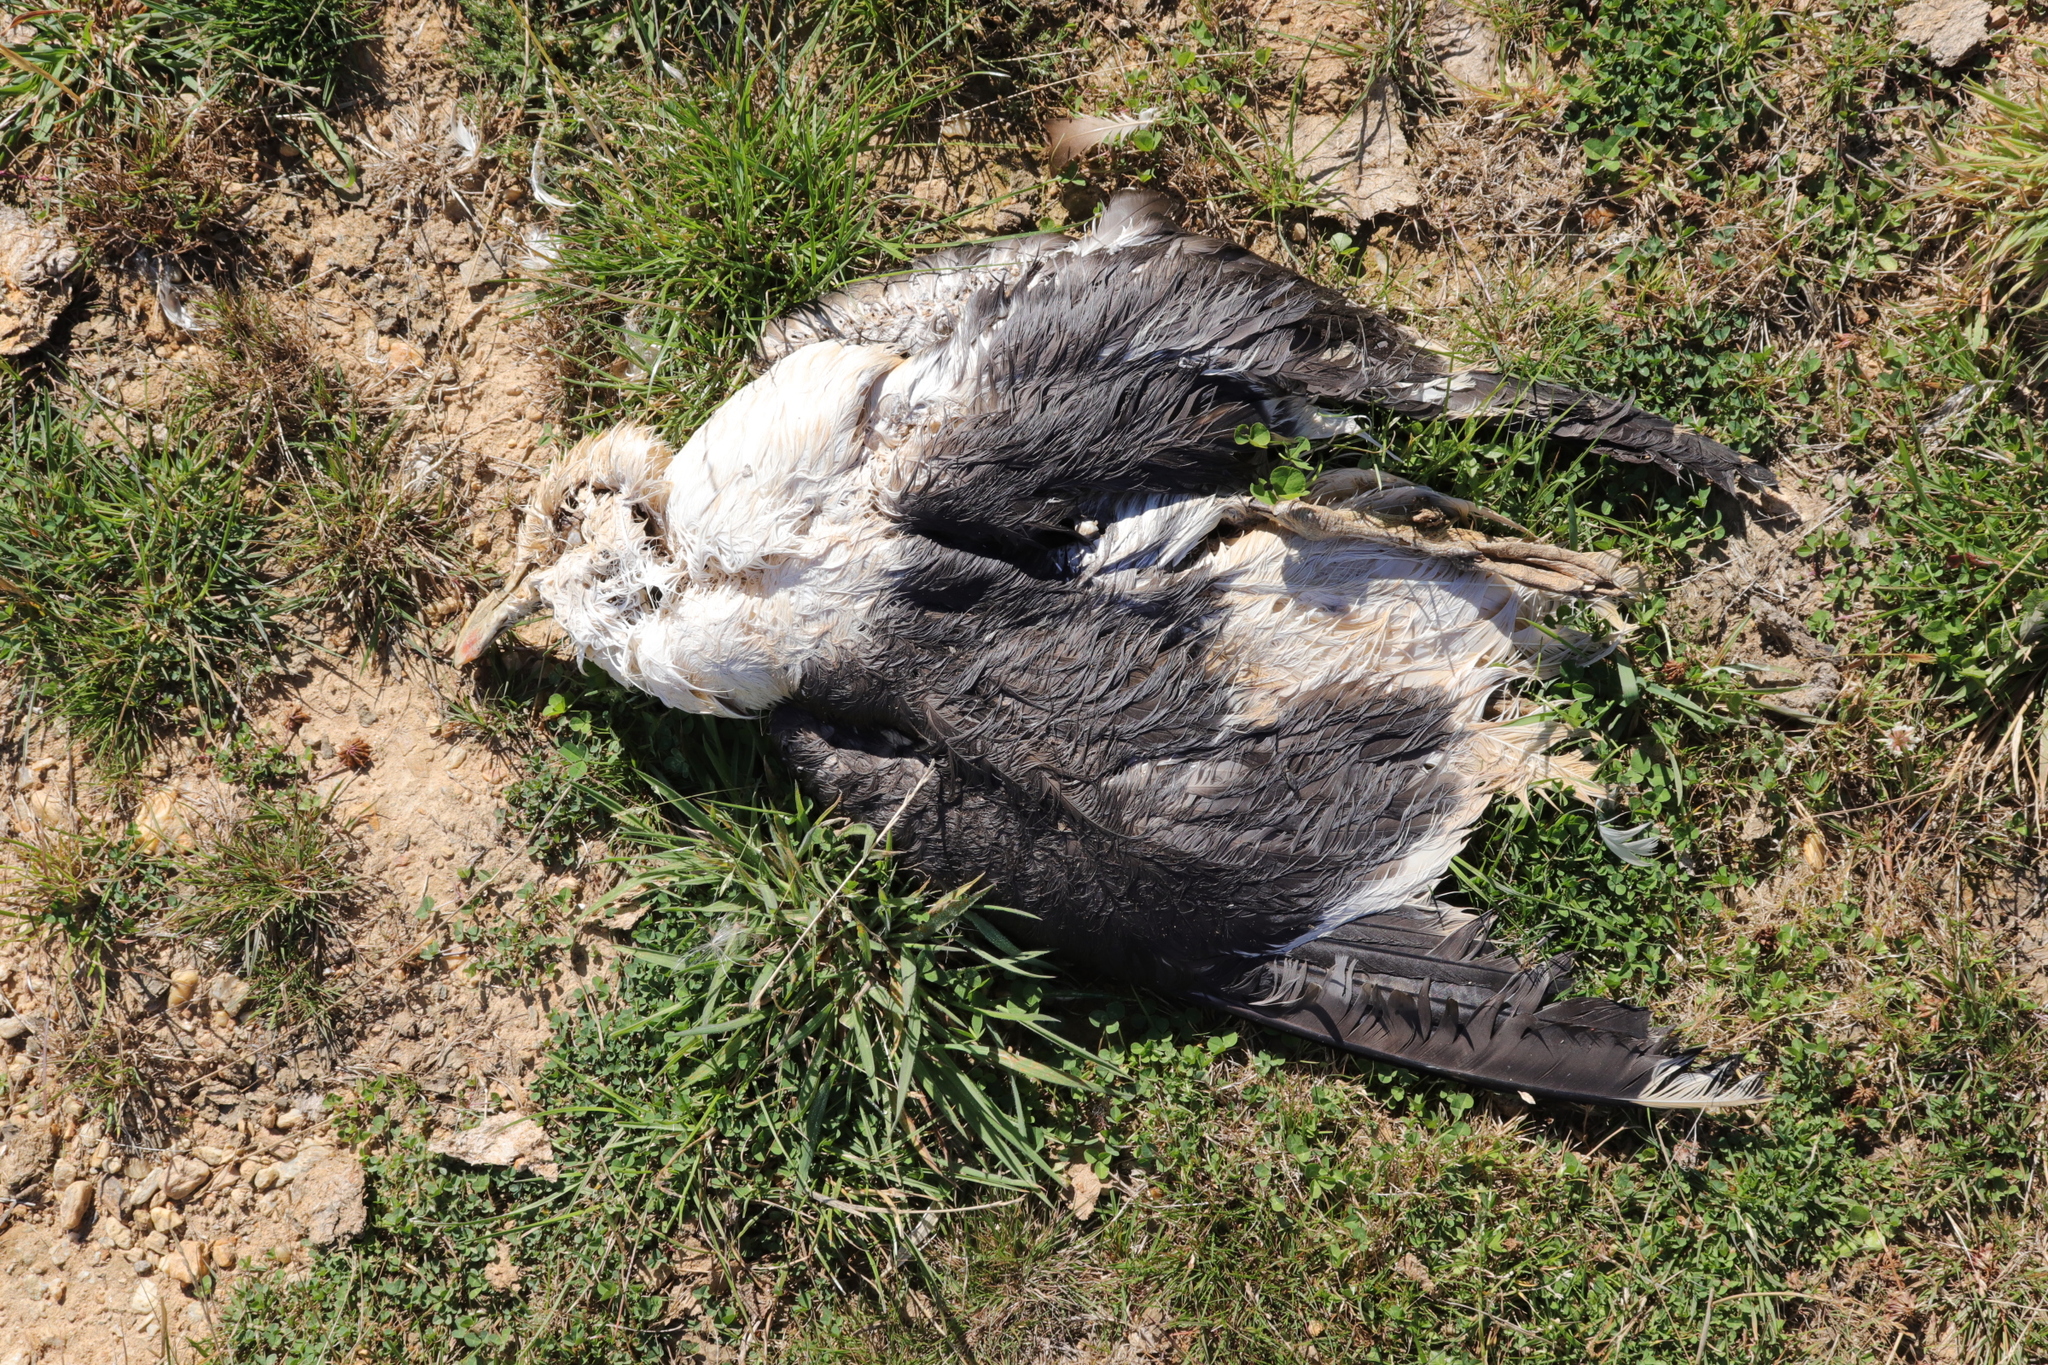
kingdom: Animalia
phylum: Chordata
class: Aves
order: Charadriiformes
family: Laridae
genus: Larus
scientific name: Larus dominicanus
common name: Kelp gull
